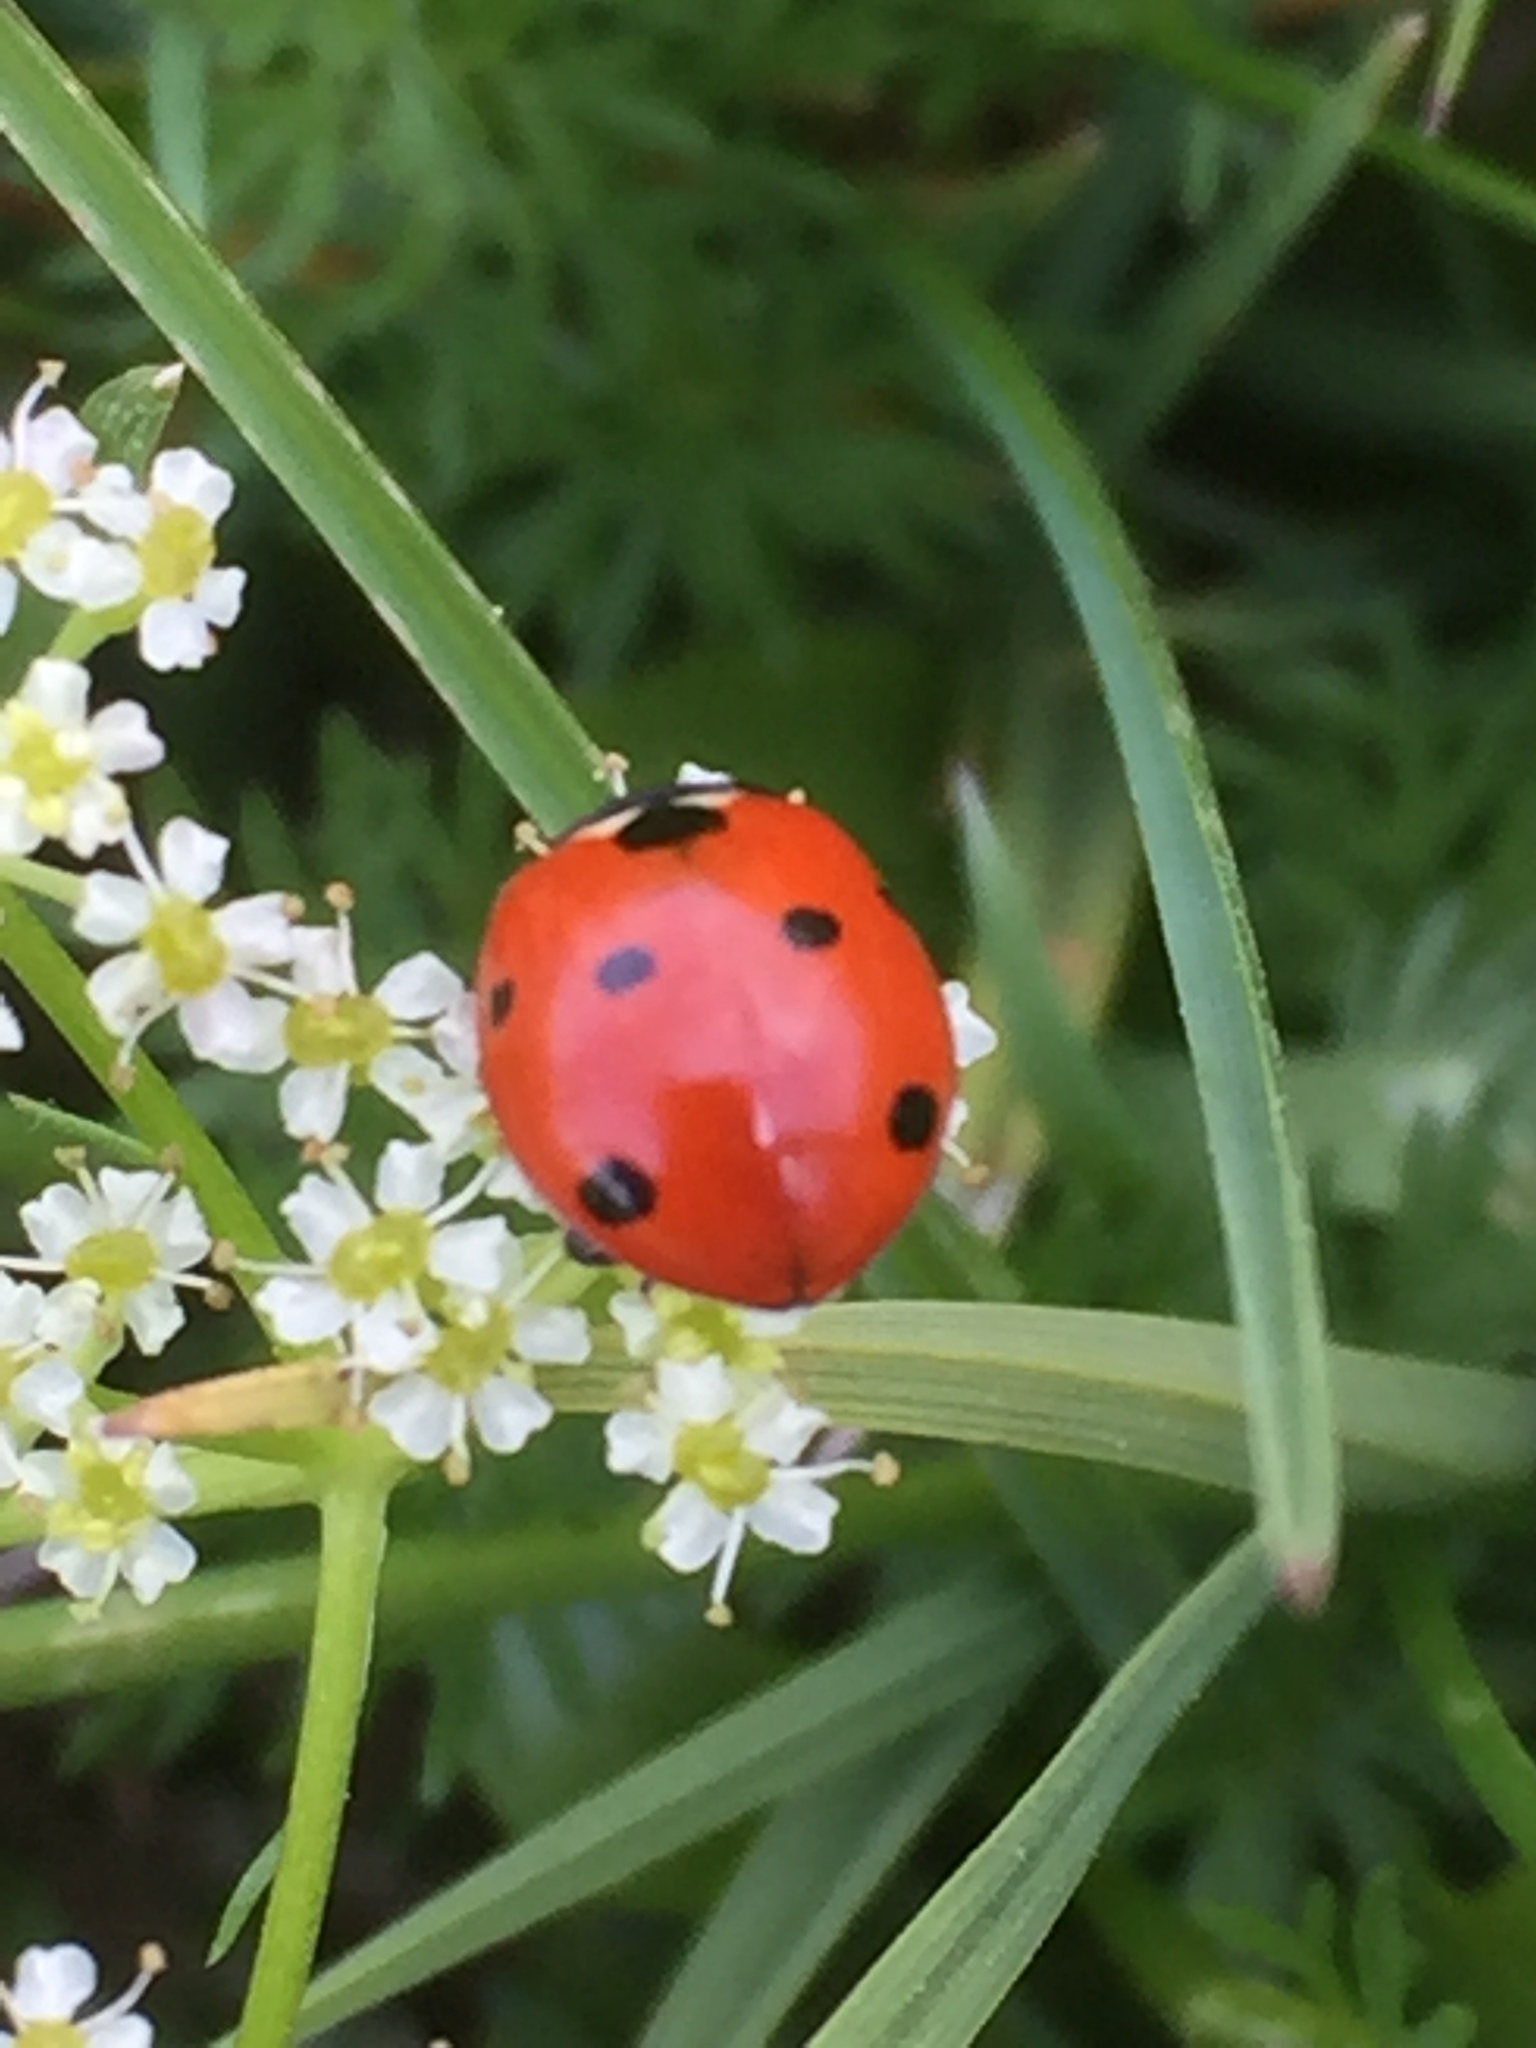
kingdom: Animalia
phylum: Arthropoda
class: Insecta
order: Coleoptera
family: Coccinellidae
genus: Coccinella
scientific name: Coccinella septempunctata
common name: Sevenspotted lady beetle
